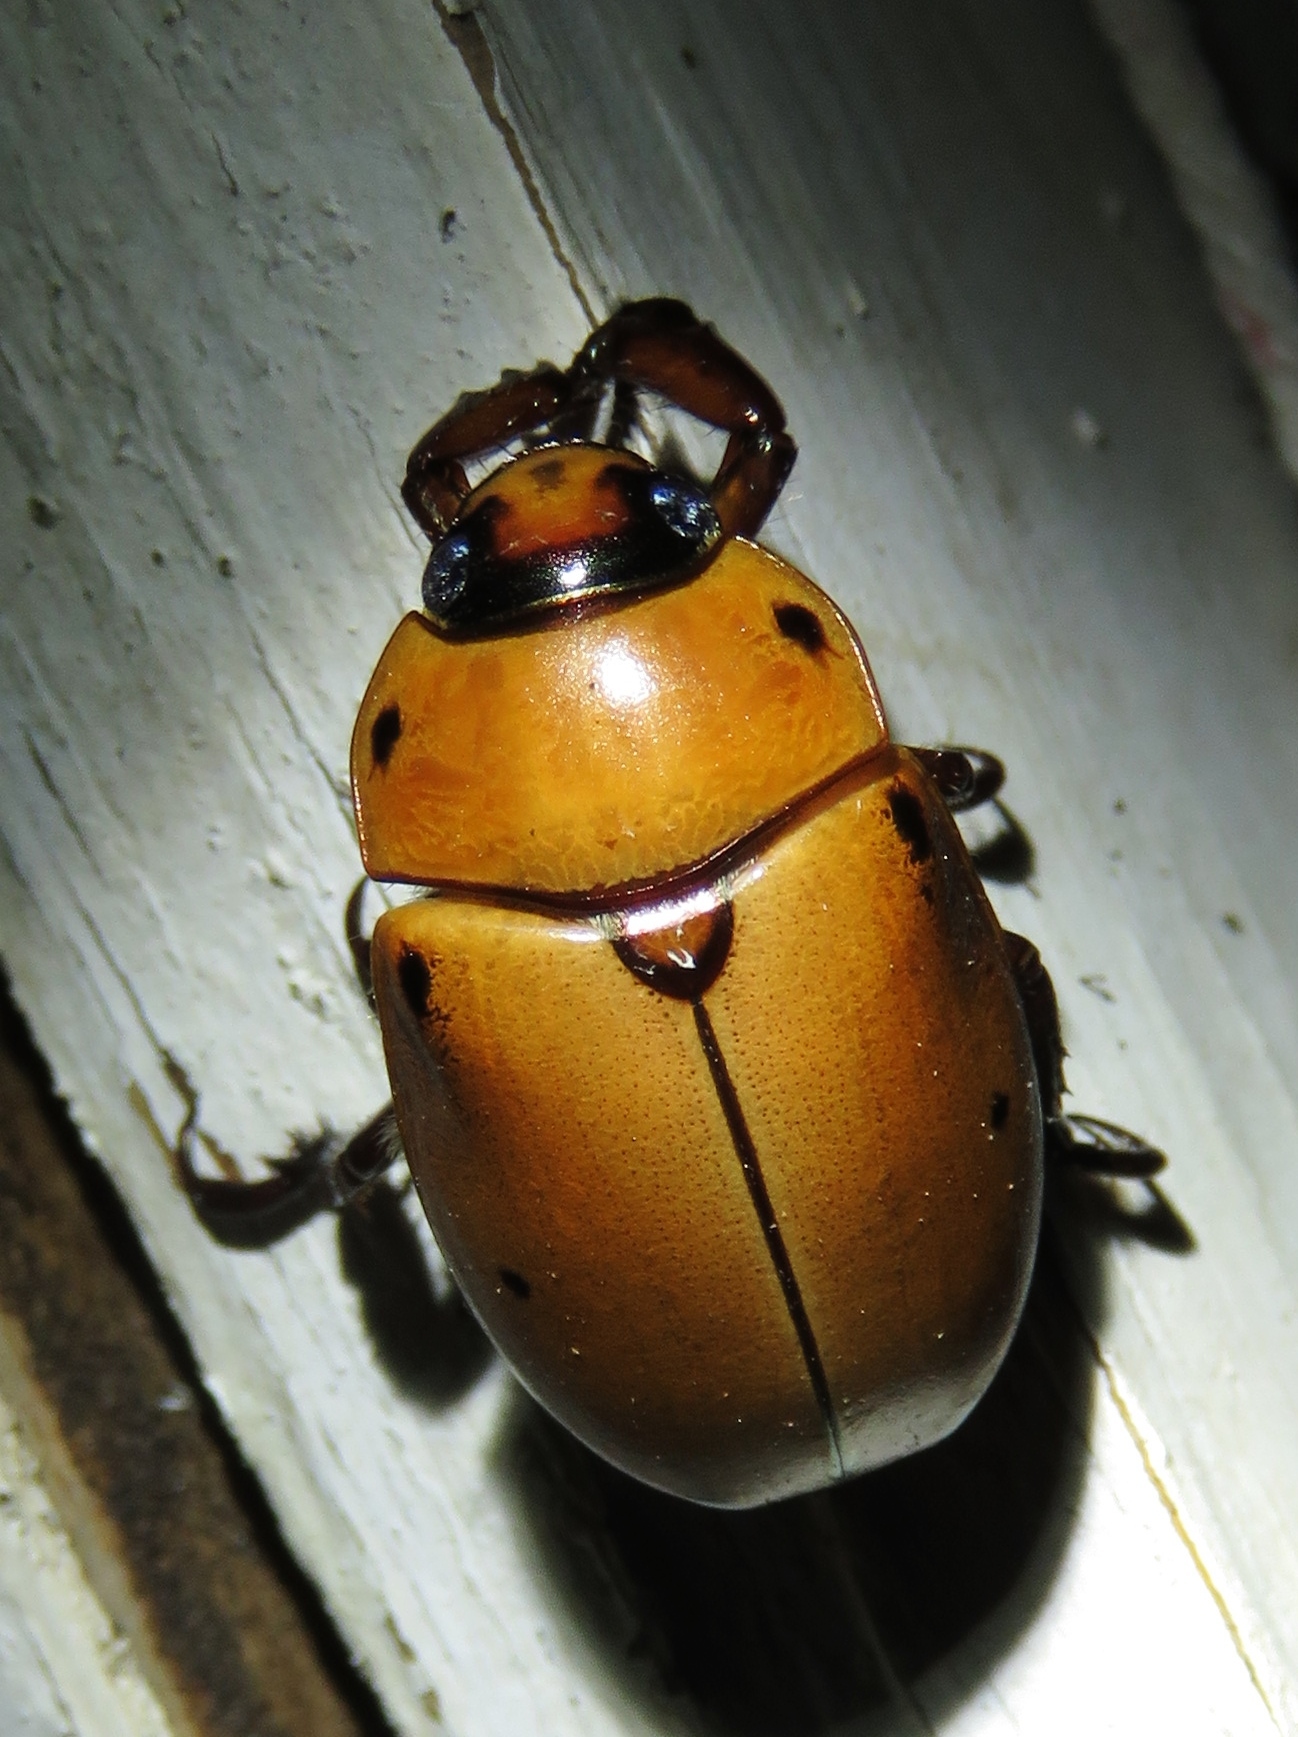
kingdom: Animalia
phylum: Arthropoda
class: Insecta
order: Coleoptera
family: Scarabaeidae
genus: Pelidnota
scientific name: Pelidnota punctata
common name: Grapevine beetle
